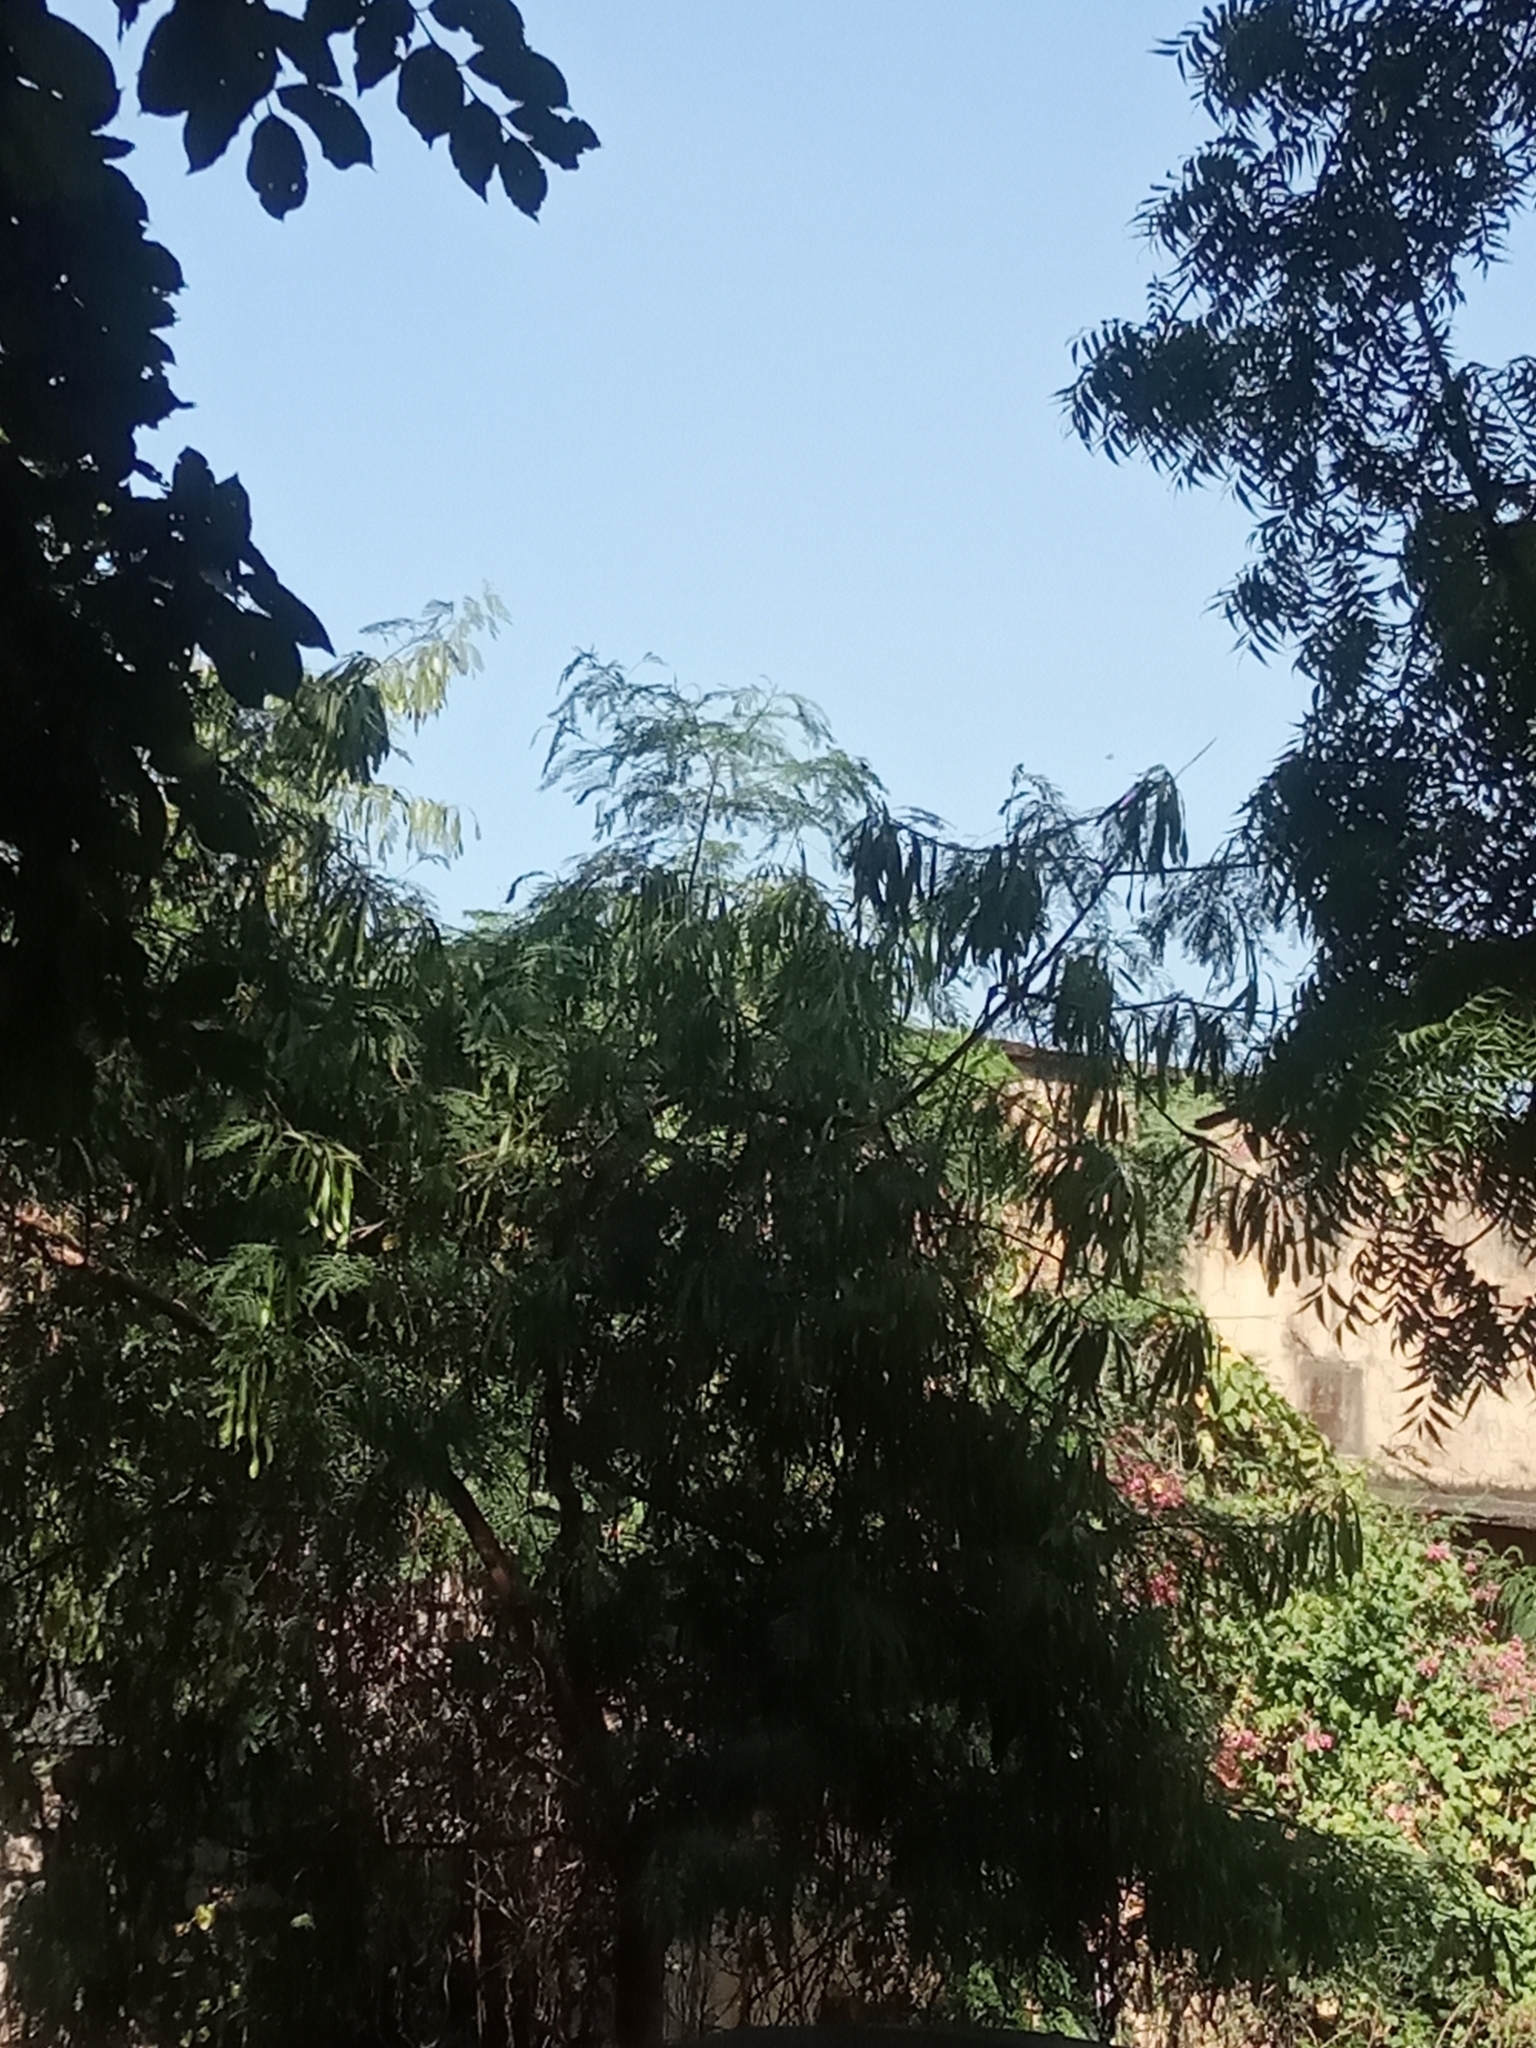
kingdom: Plantae
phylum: Tracheophyta
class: Magnoliopsida
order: Fabales
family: Fabaceae
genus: Leucaena
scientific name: Leucaena leucocephala
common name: White leadtree
